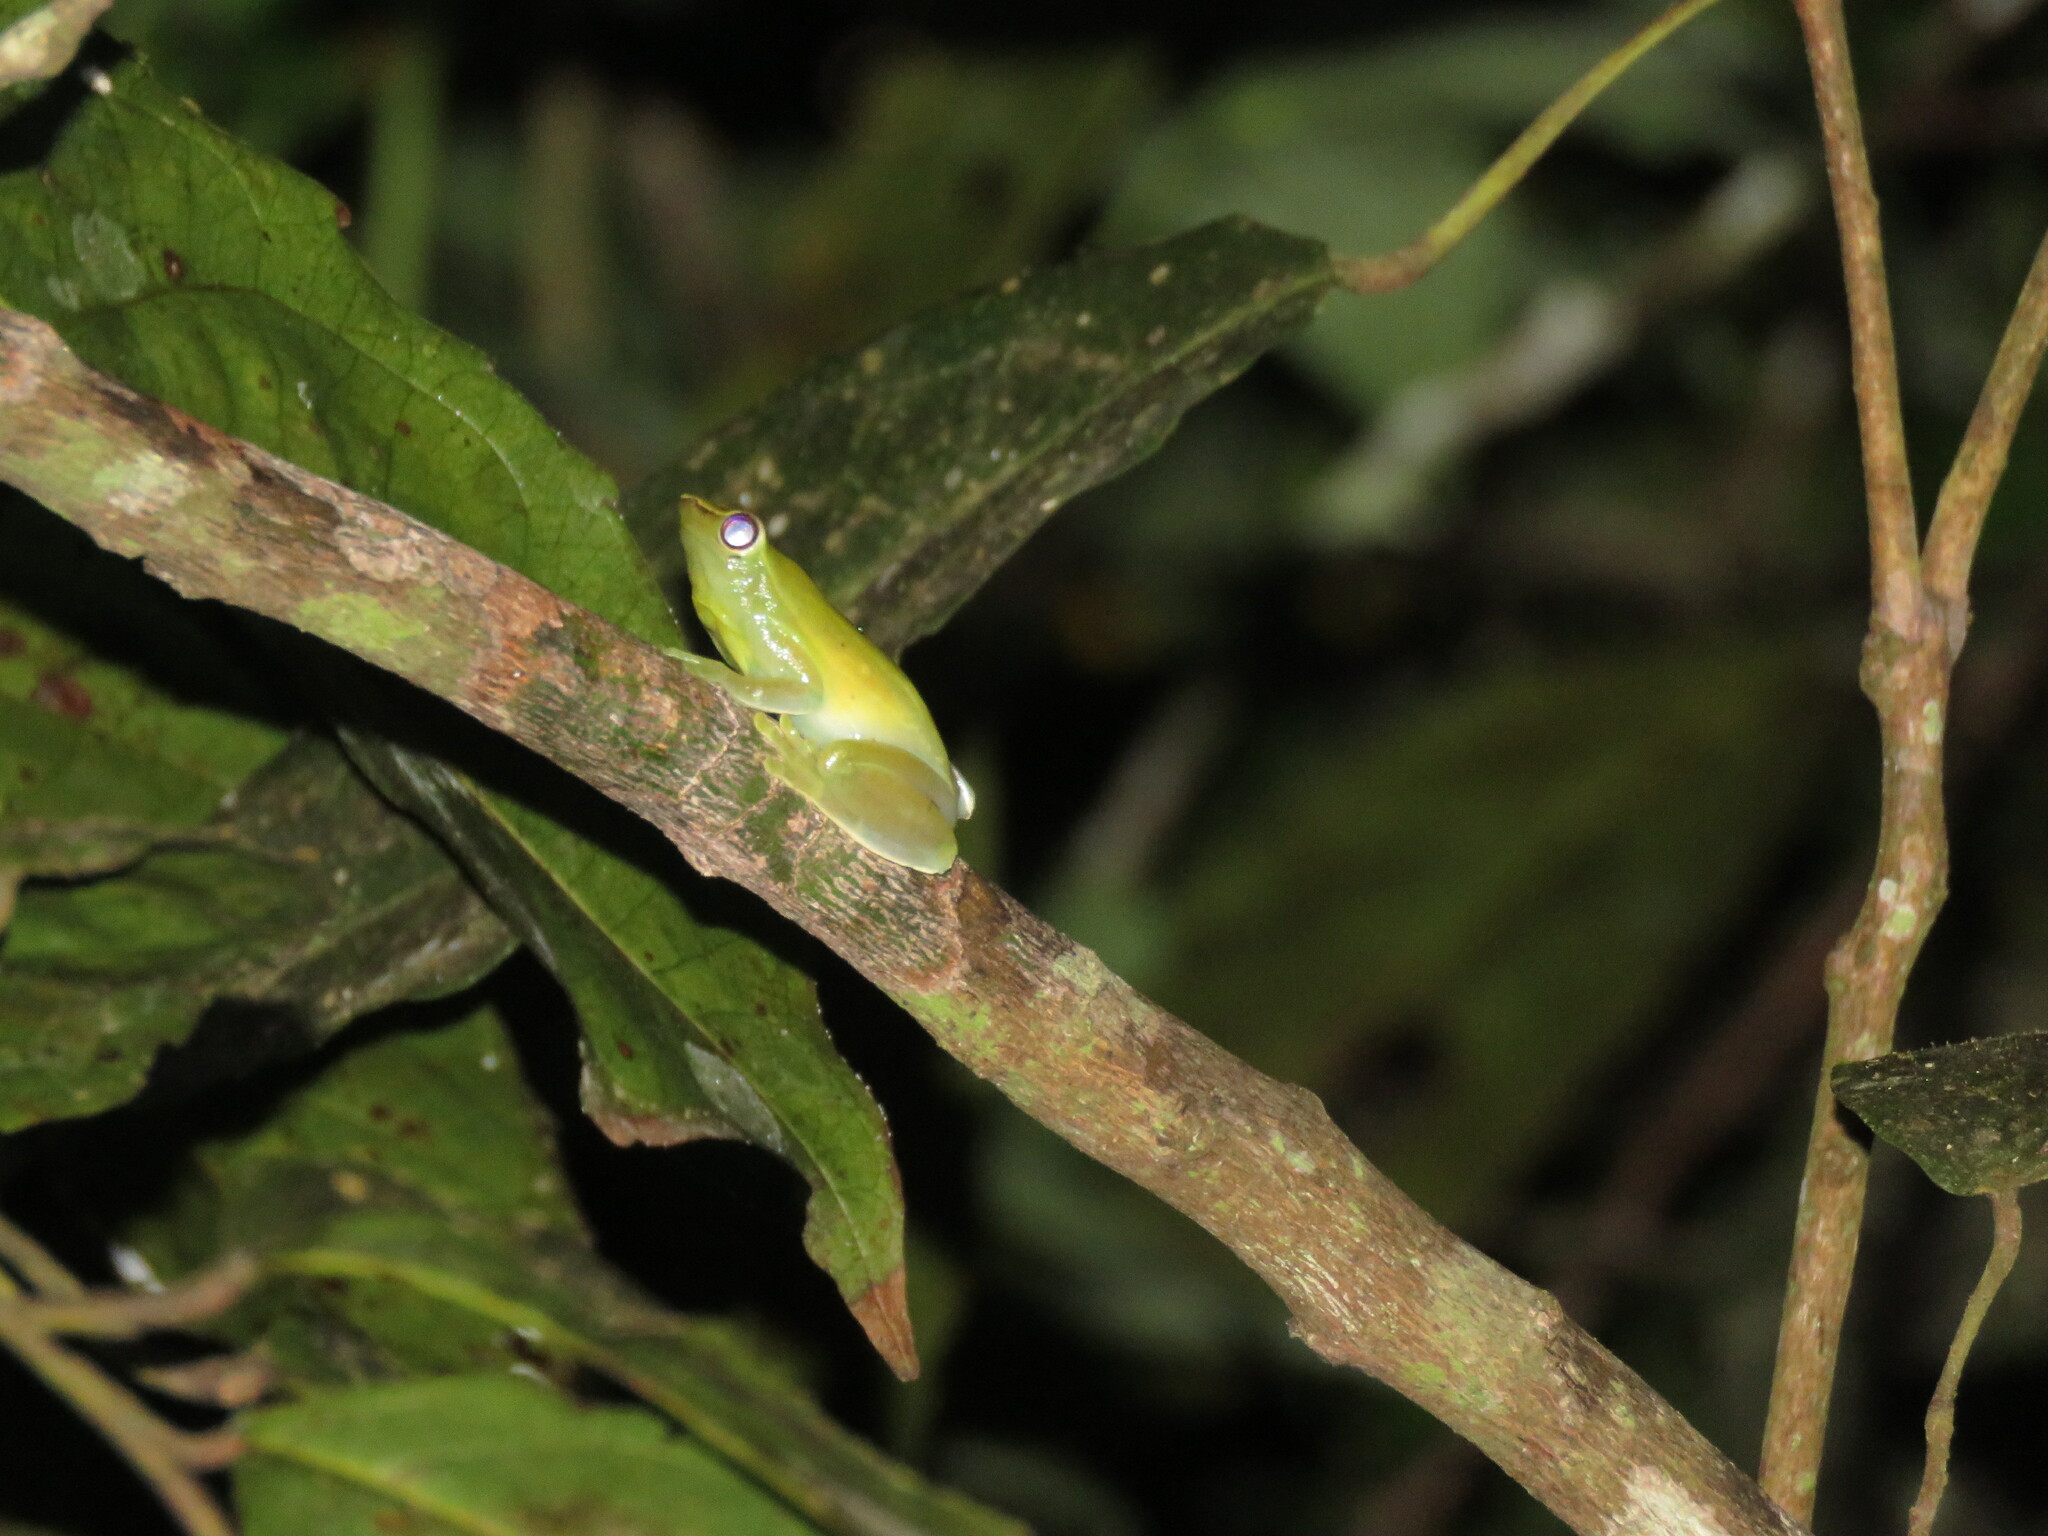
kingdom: Animalia
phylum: Chordata
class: Amphibia
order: Anura
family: Hylidae
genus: Sphaenorhynchus
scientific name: Sphaenorhynchus lacteus
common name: Orinoco lime treefrog
